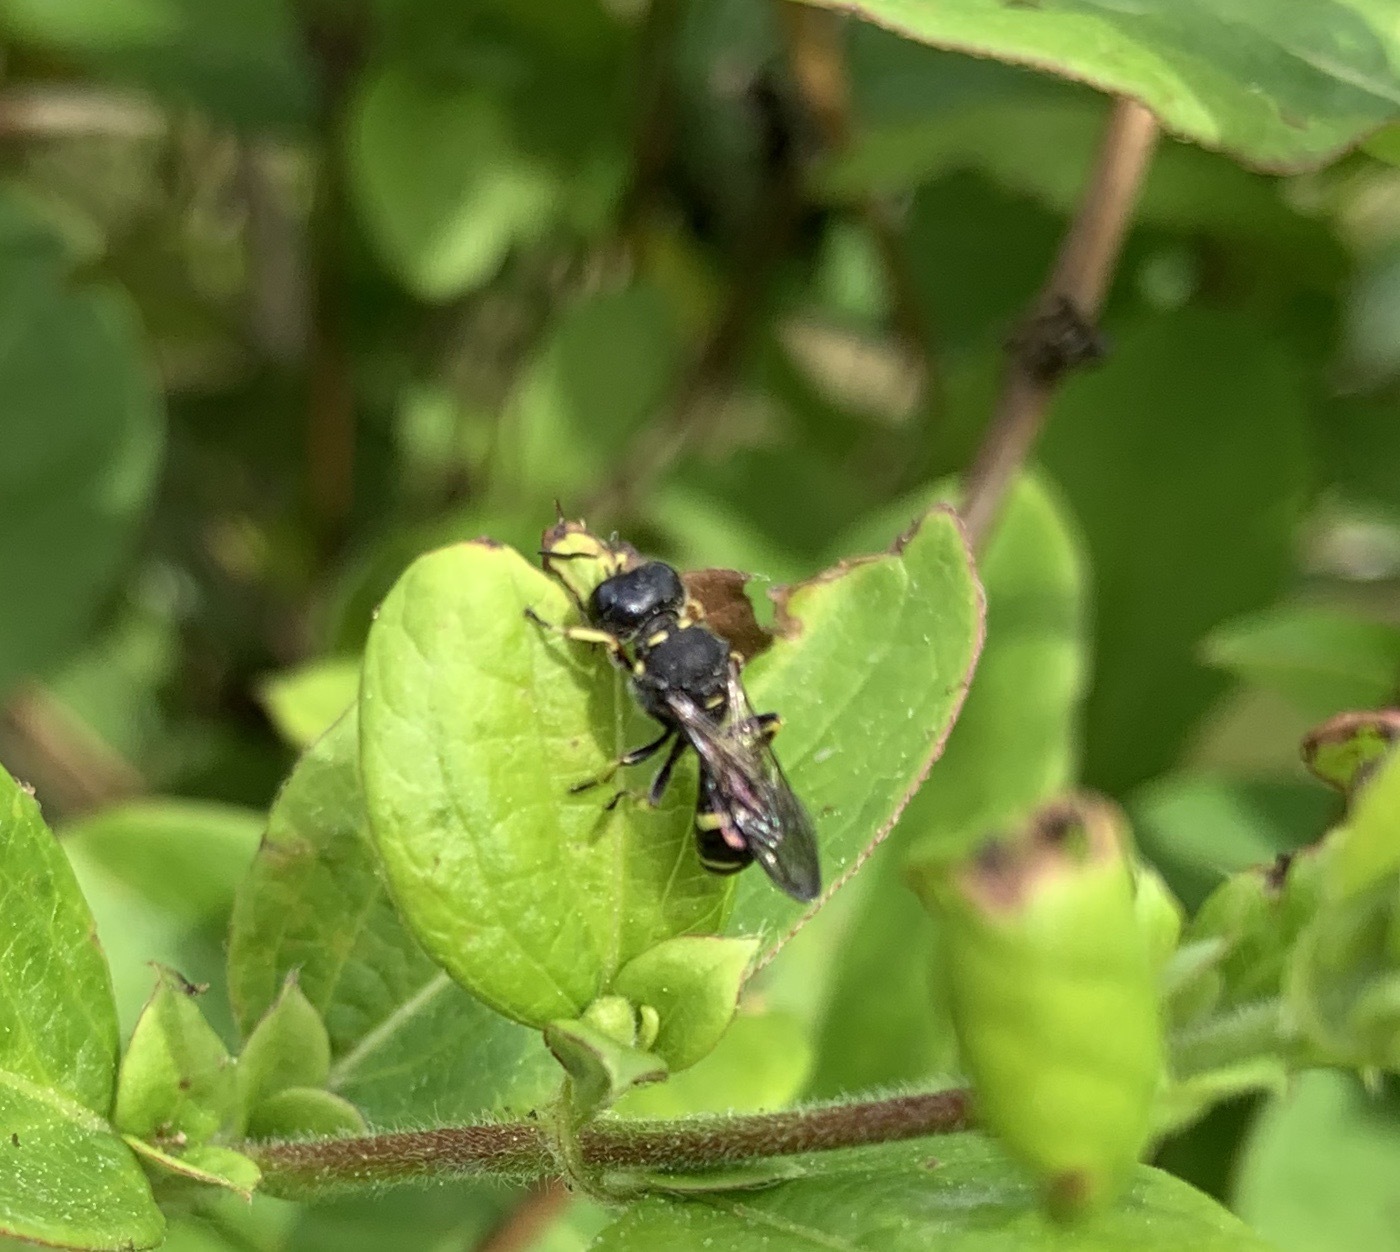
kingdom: Animalia
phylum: Arthropoda
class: Insecta
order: Hymenoptera
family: Crabronidae
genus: Ectemnius
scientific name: Ectemnius continuus
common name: Common ectemnius
